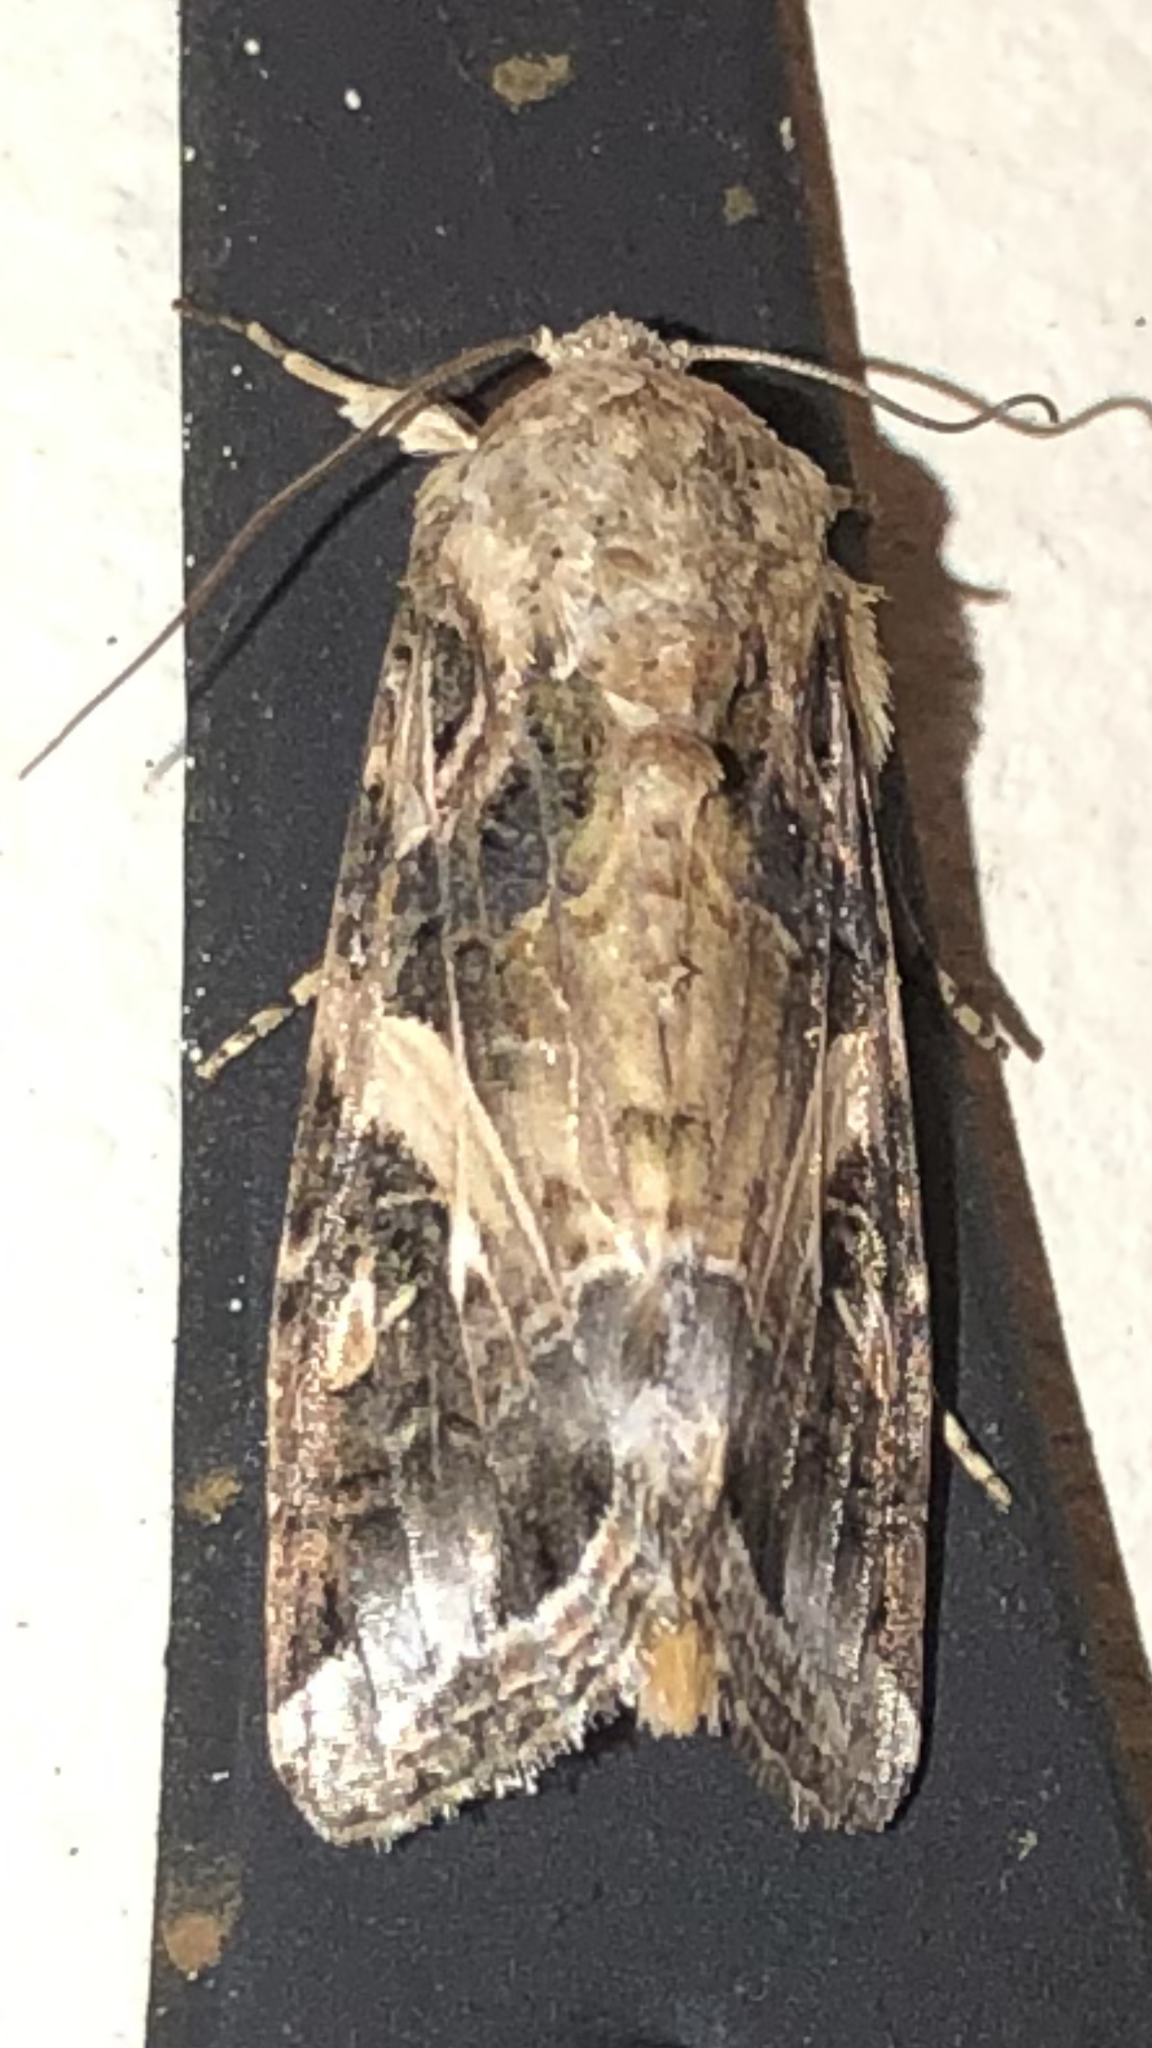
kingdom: Animalia
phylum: Arthropoda
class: Insecta
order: Lepidoptera
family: Noctuidae
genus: Spodoptera
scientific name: Spodoptera ornithogalli
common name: Yellow-striped armyworm
